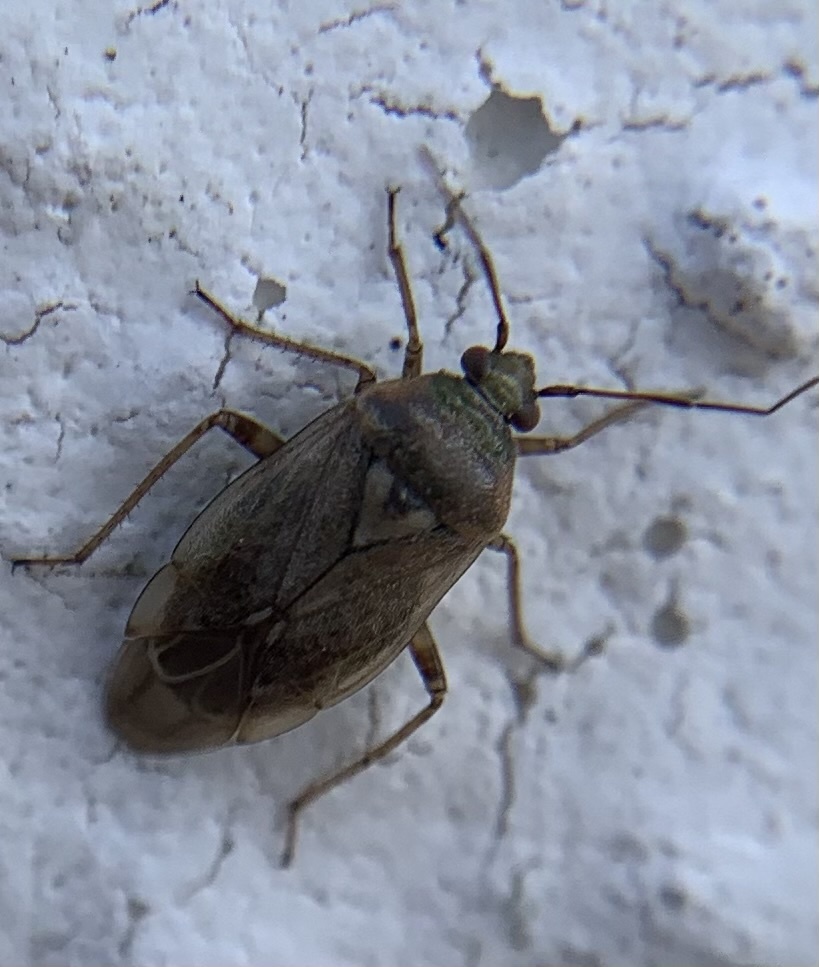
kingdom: Animalia
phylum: Arthropoda
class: Insecta
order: Hemiptera
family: Miridae
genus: Lygus
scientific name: Lygus rugulipennis
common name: European tarnished plant bug
